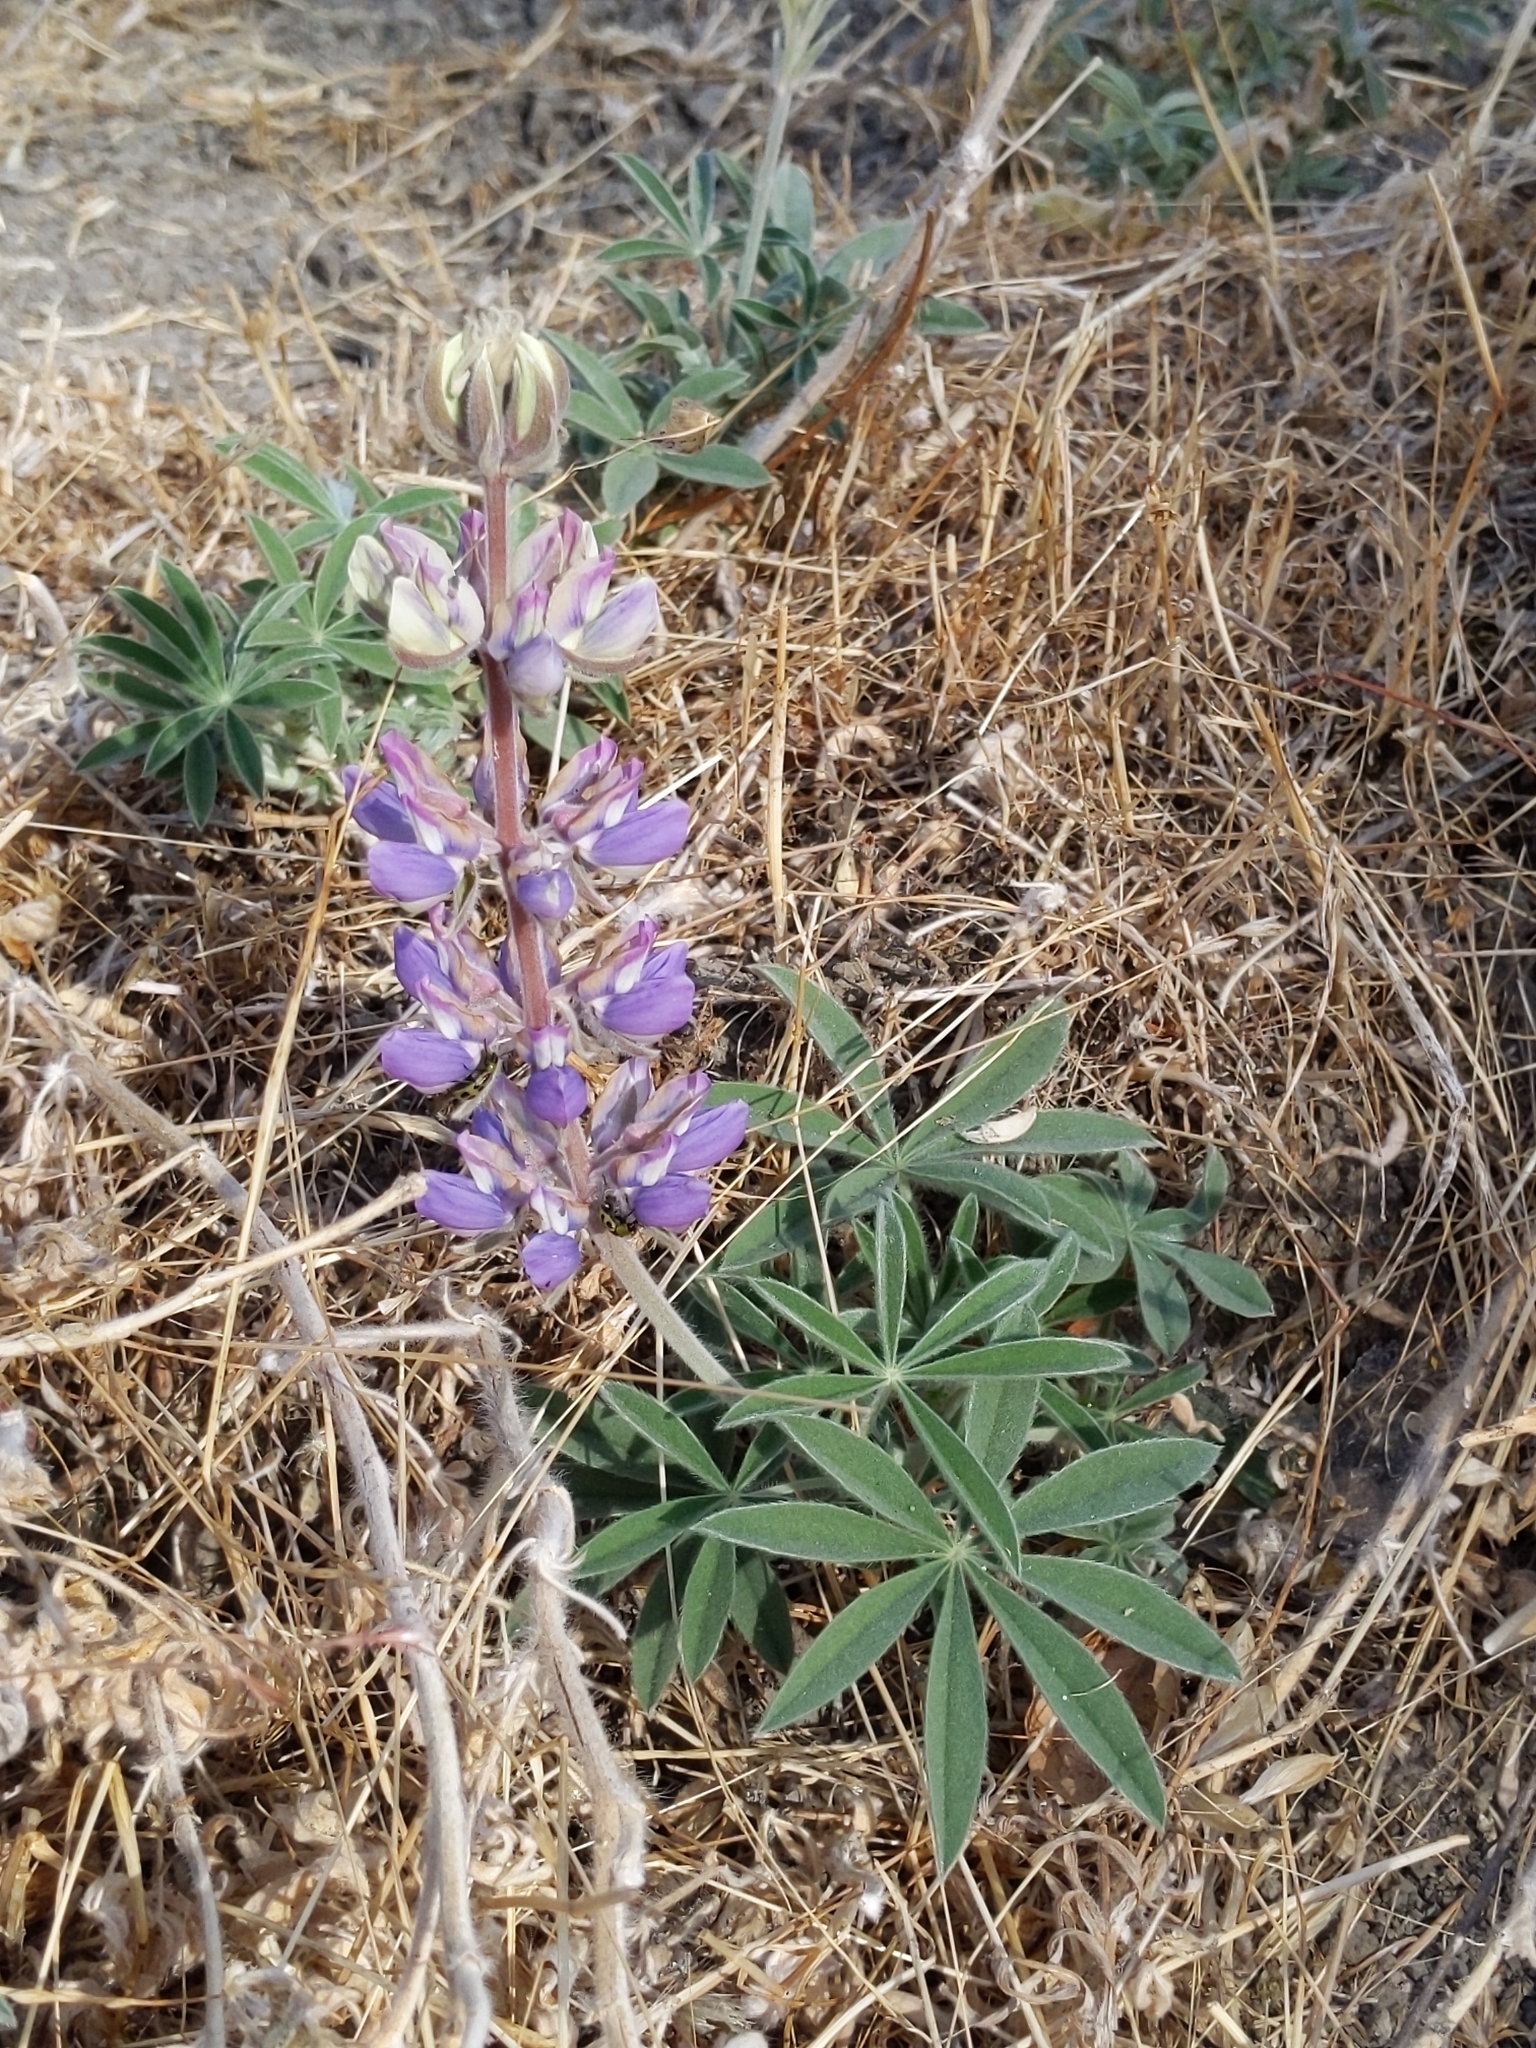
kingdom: Plantae
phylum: Tracheophyta
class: Magnoliopsida
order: Fabales
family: Fabaceae
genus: Lupinus
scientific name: Lupinus formosus
